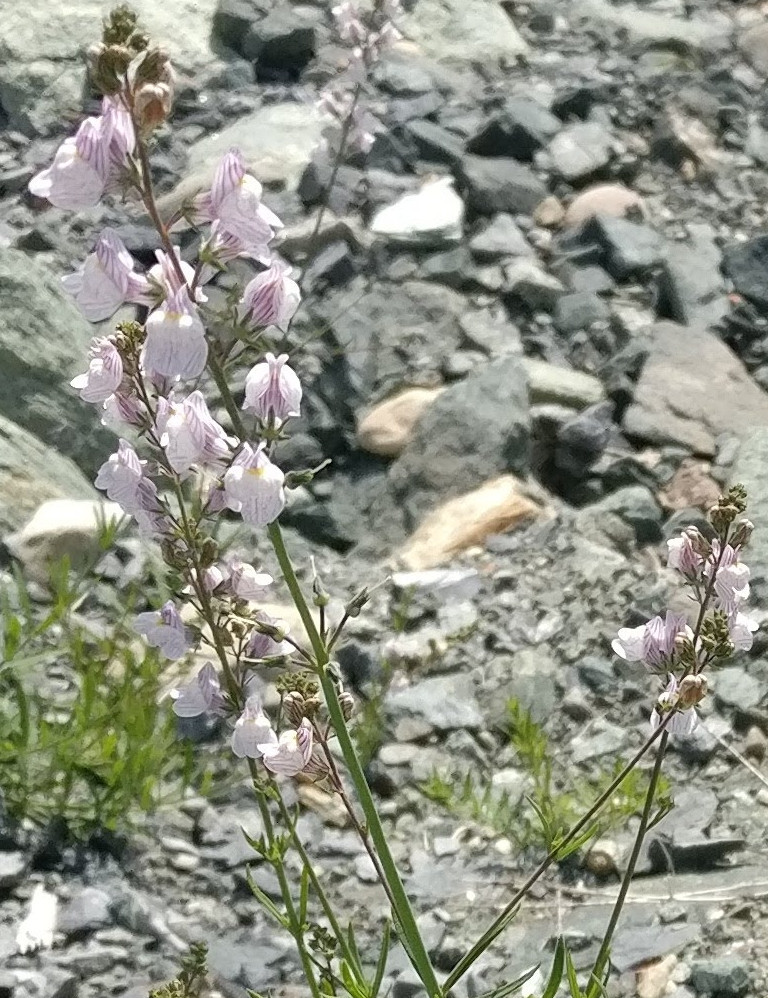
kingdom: Plantae
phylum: Tracheophyta
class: Magnoliopsida
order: Lamiales
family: Plantaginaceae
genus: Linaria
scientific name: Linaria repens
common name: Pale toadflax
